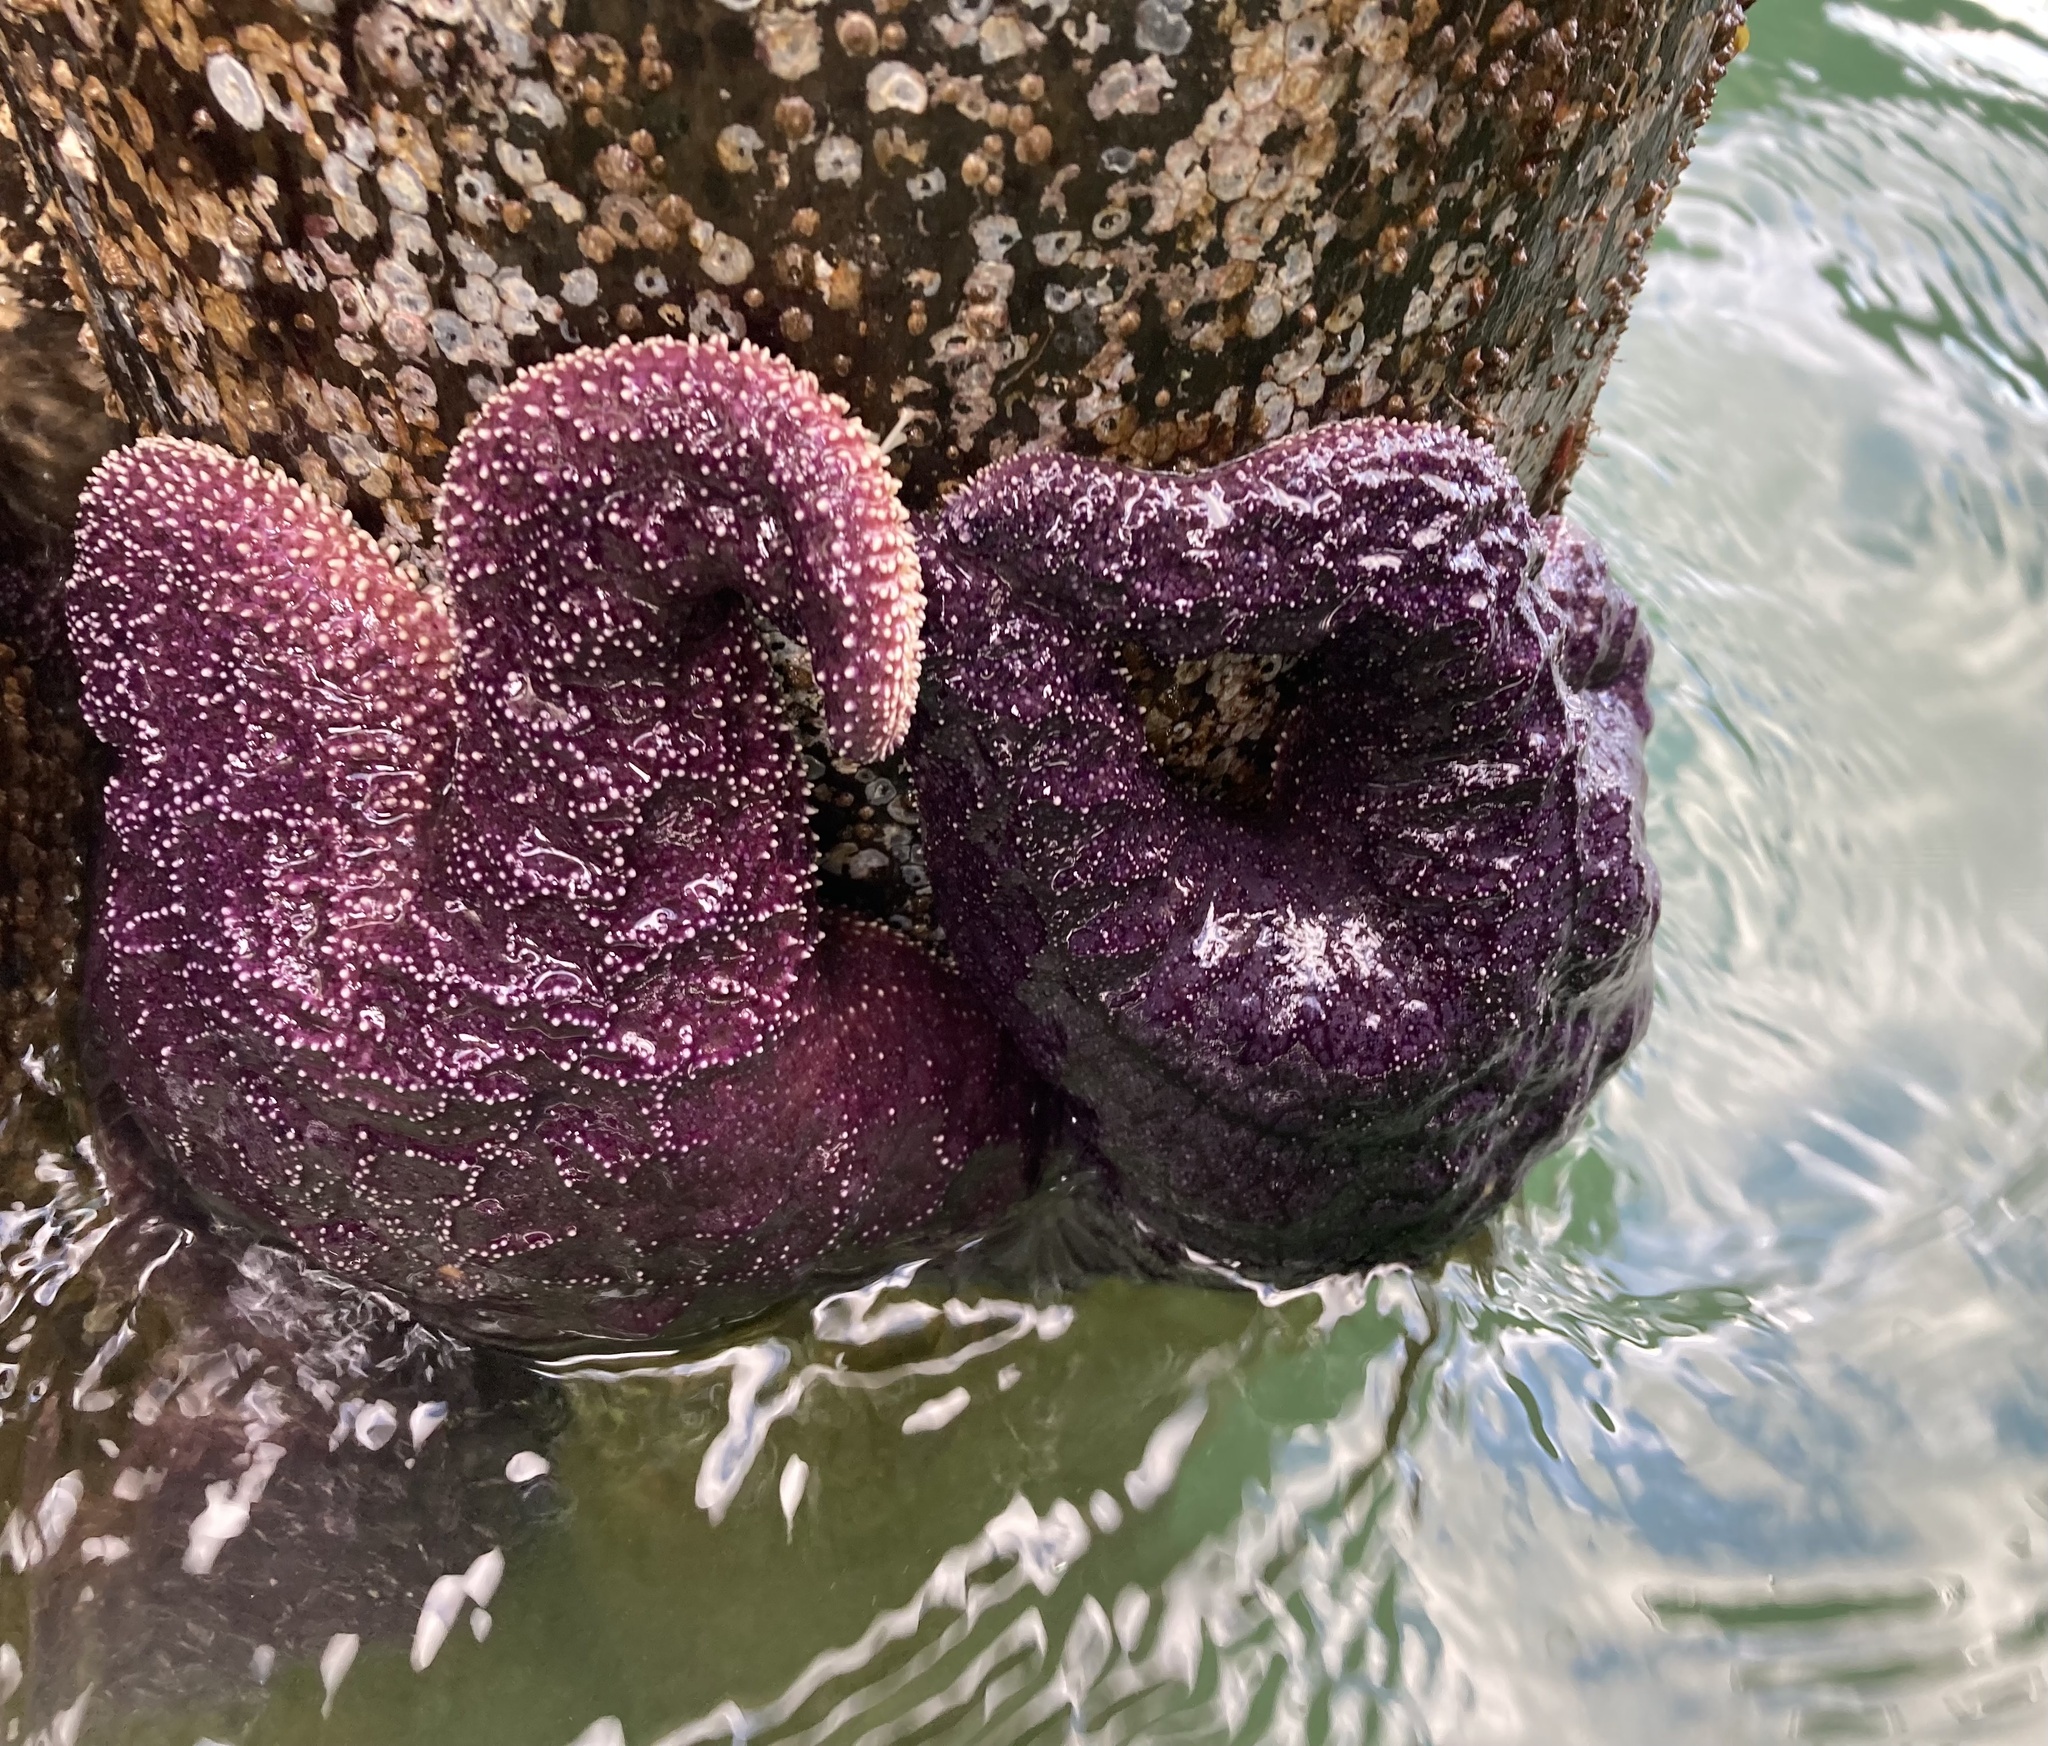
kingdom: Animalia
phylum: Echinodermata
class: Asteroidea
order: Forcipulatida
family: Asteriidae
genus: Pisaster
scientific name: Pisaster ochraceus
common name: Ochre stars
